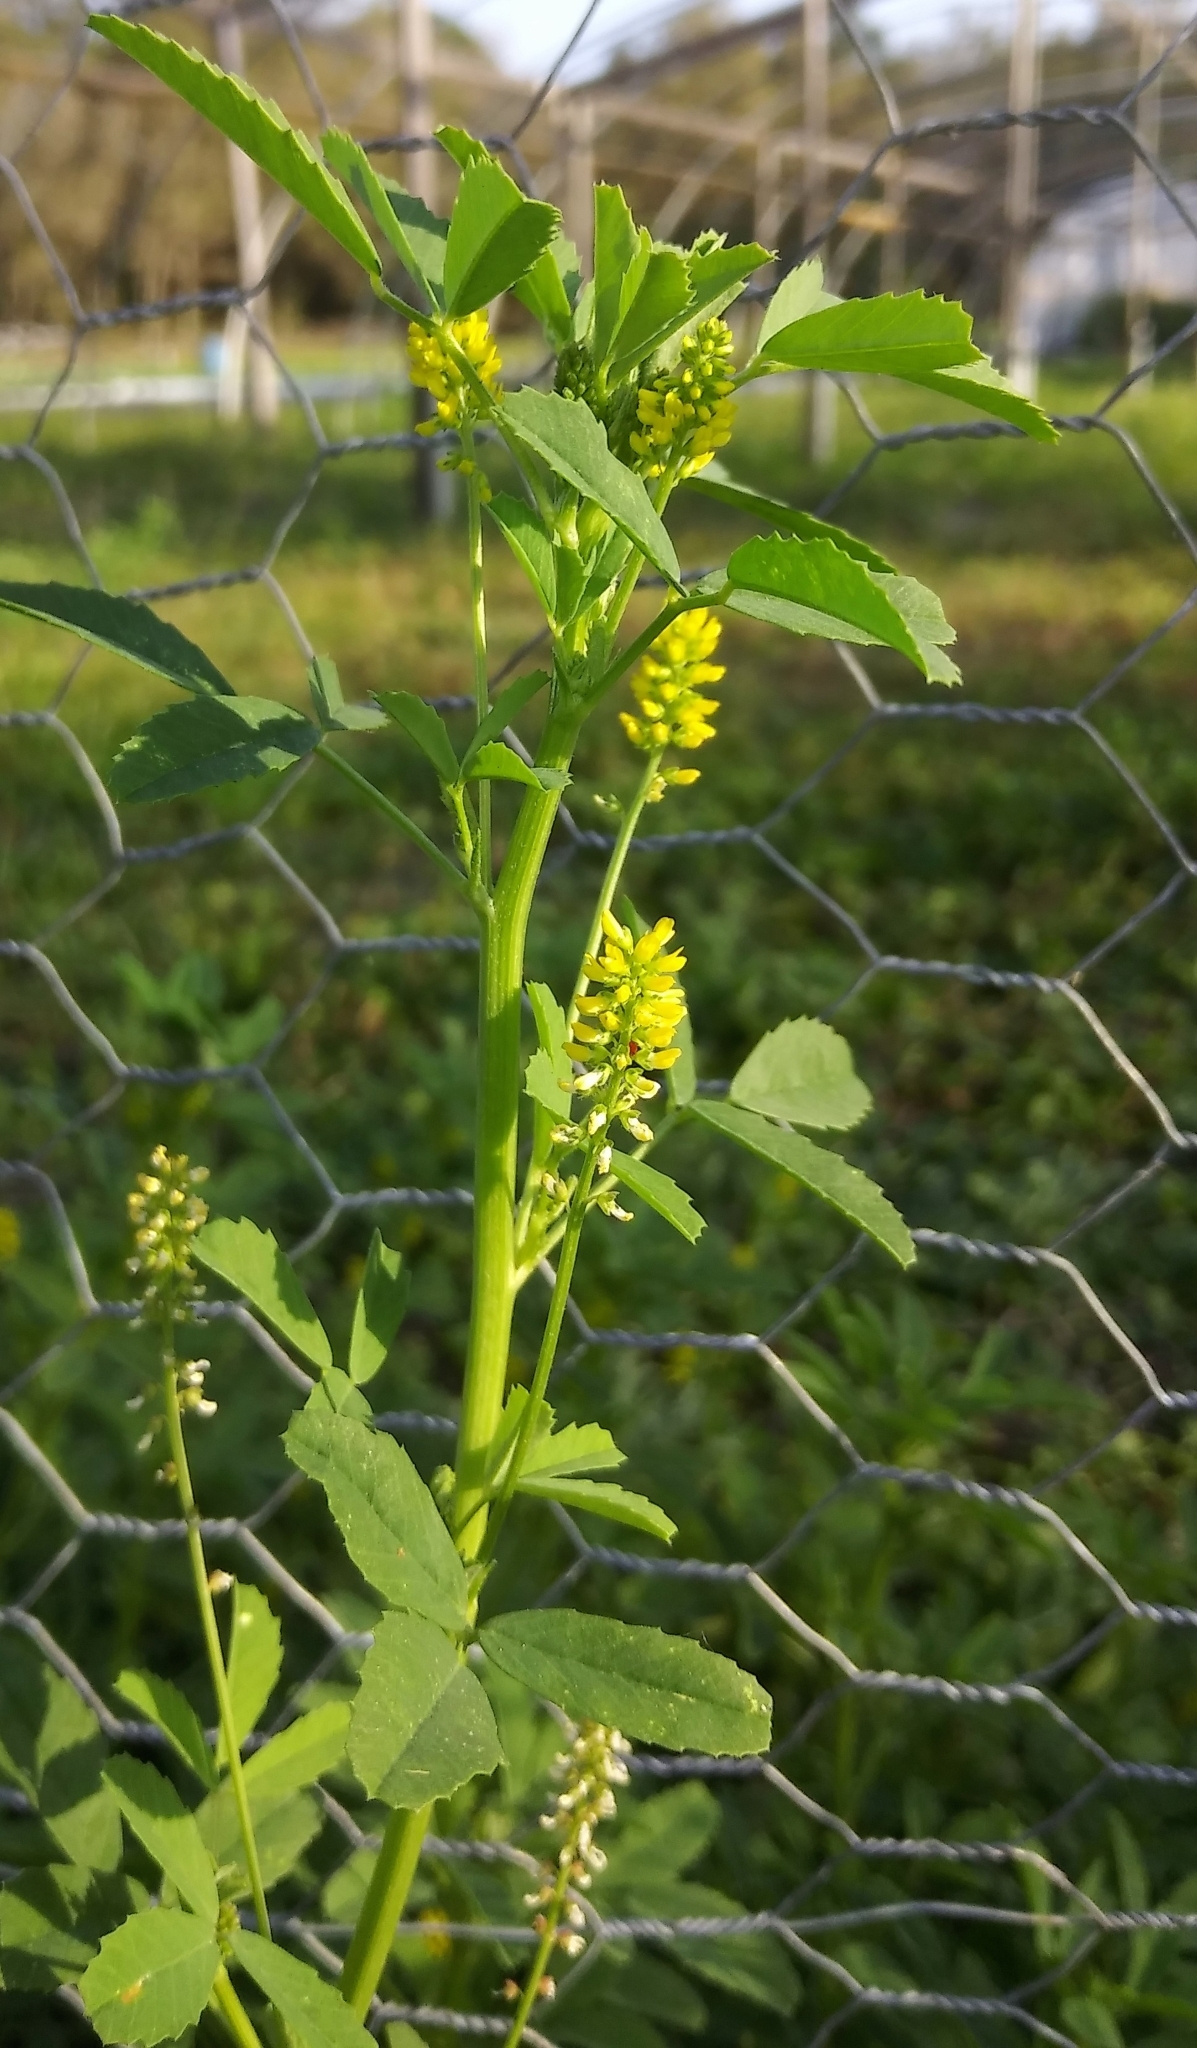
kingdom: Plantae
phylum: Tracheophyta
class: Magnoliopsida
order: Fabales
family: Fabaceae
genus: Melilotus
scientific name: Melilotus indicus
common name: Small melilot
